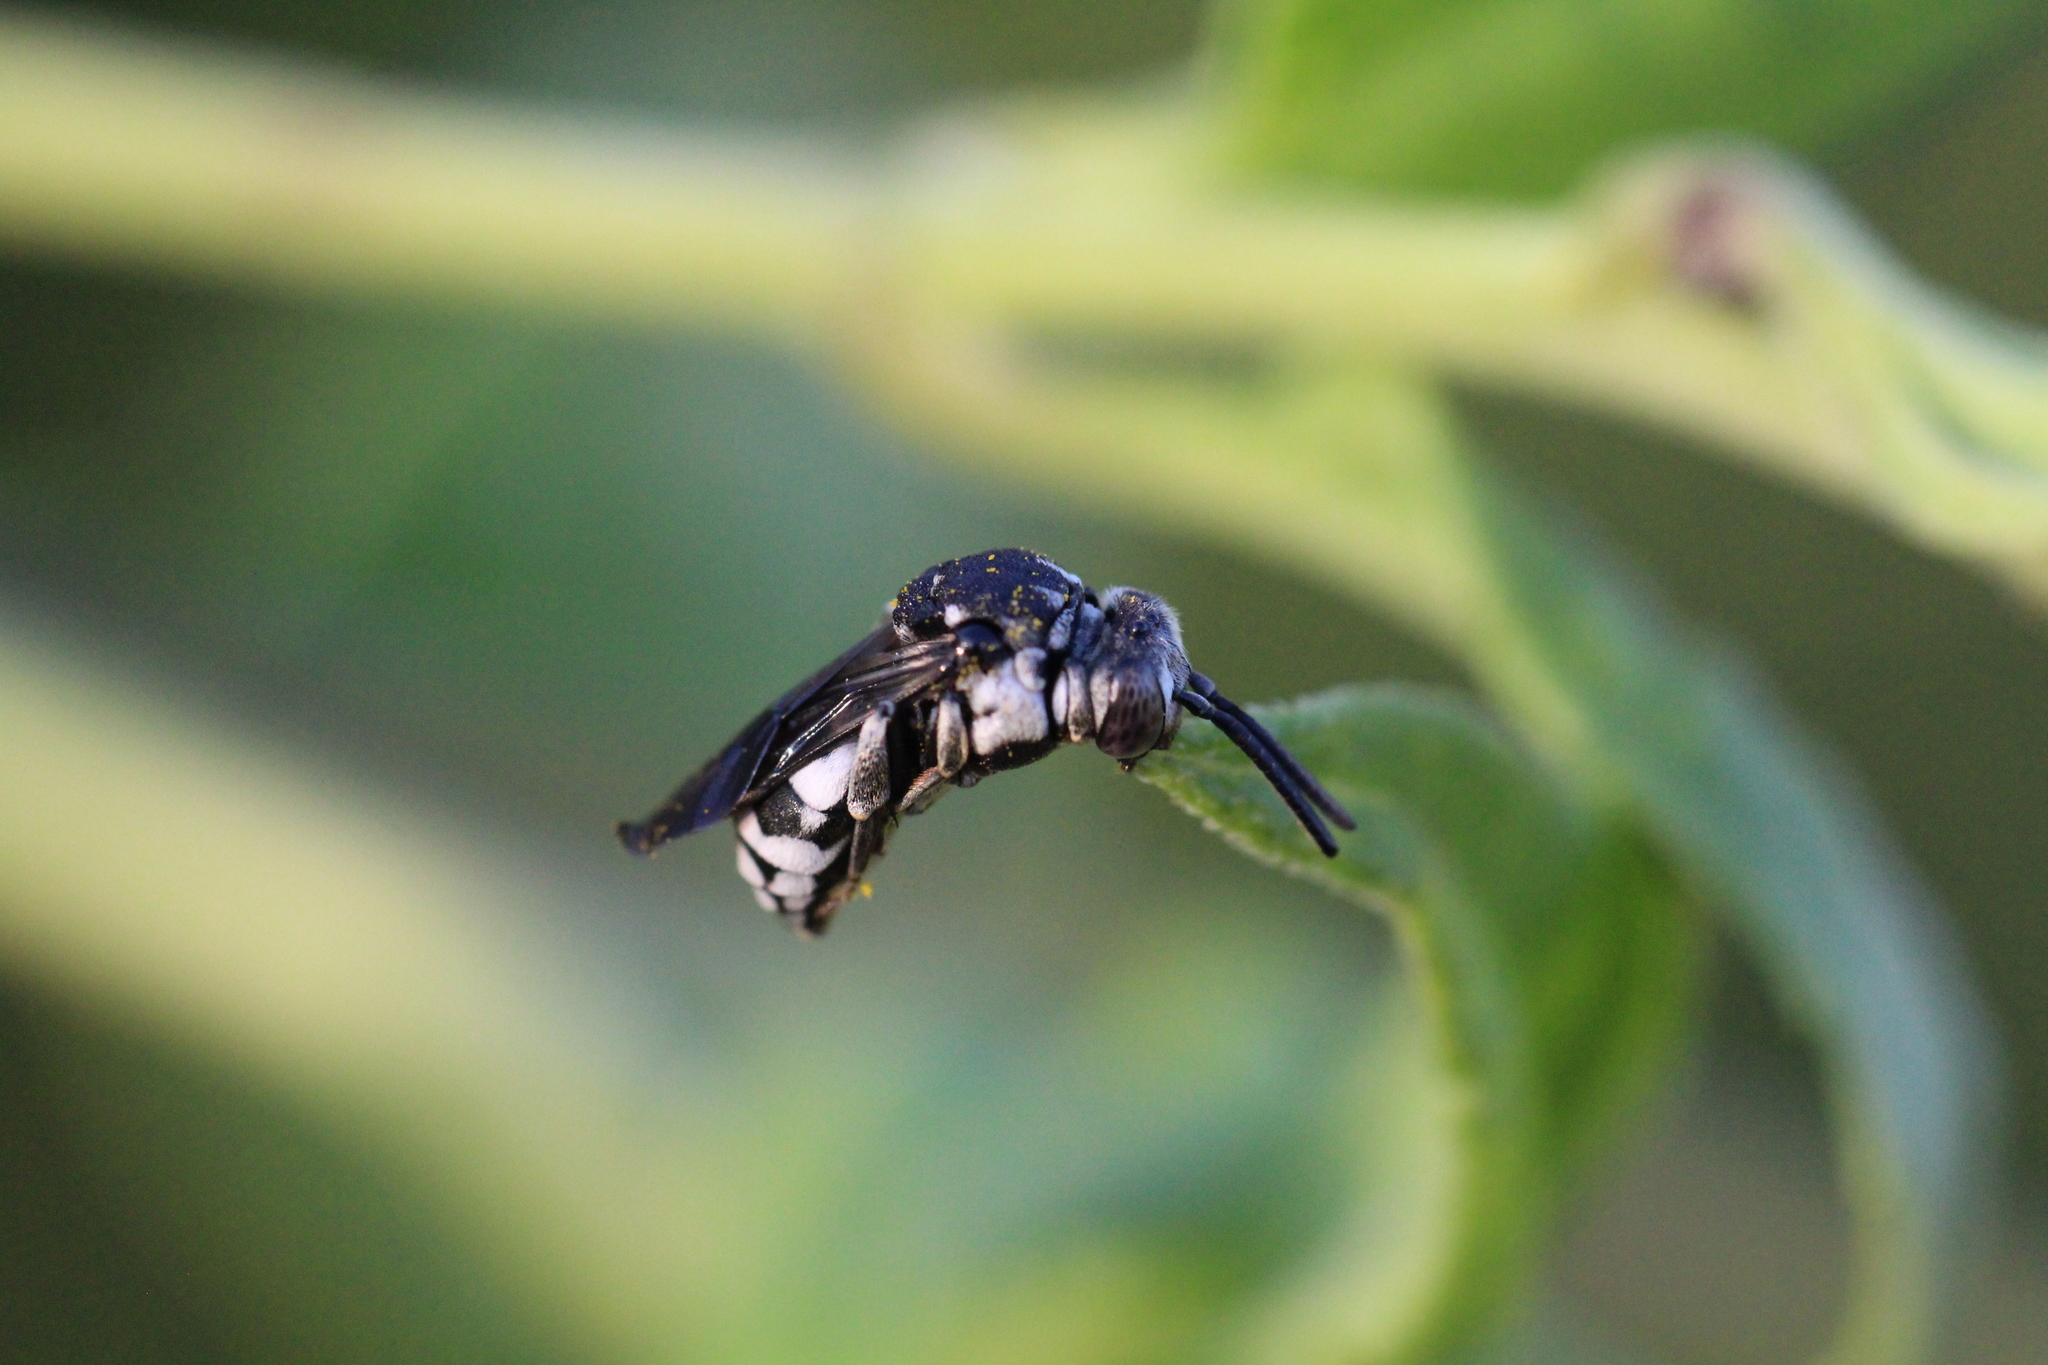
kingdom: Animalia
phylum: Arthropoda
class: Insecta
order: Hymenoptera
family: Apidae
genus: Epeolus
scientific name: Epeolus fallax
